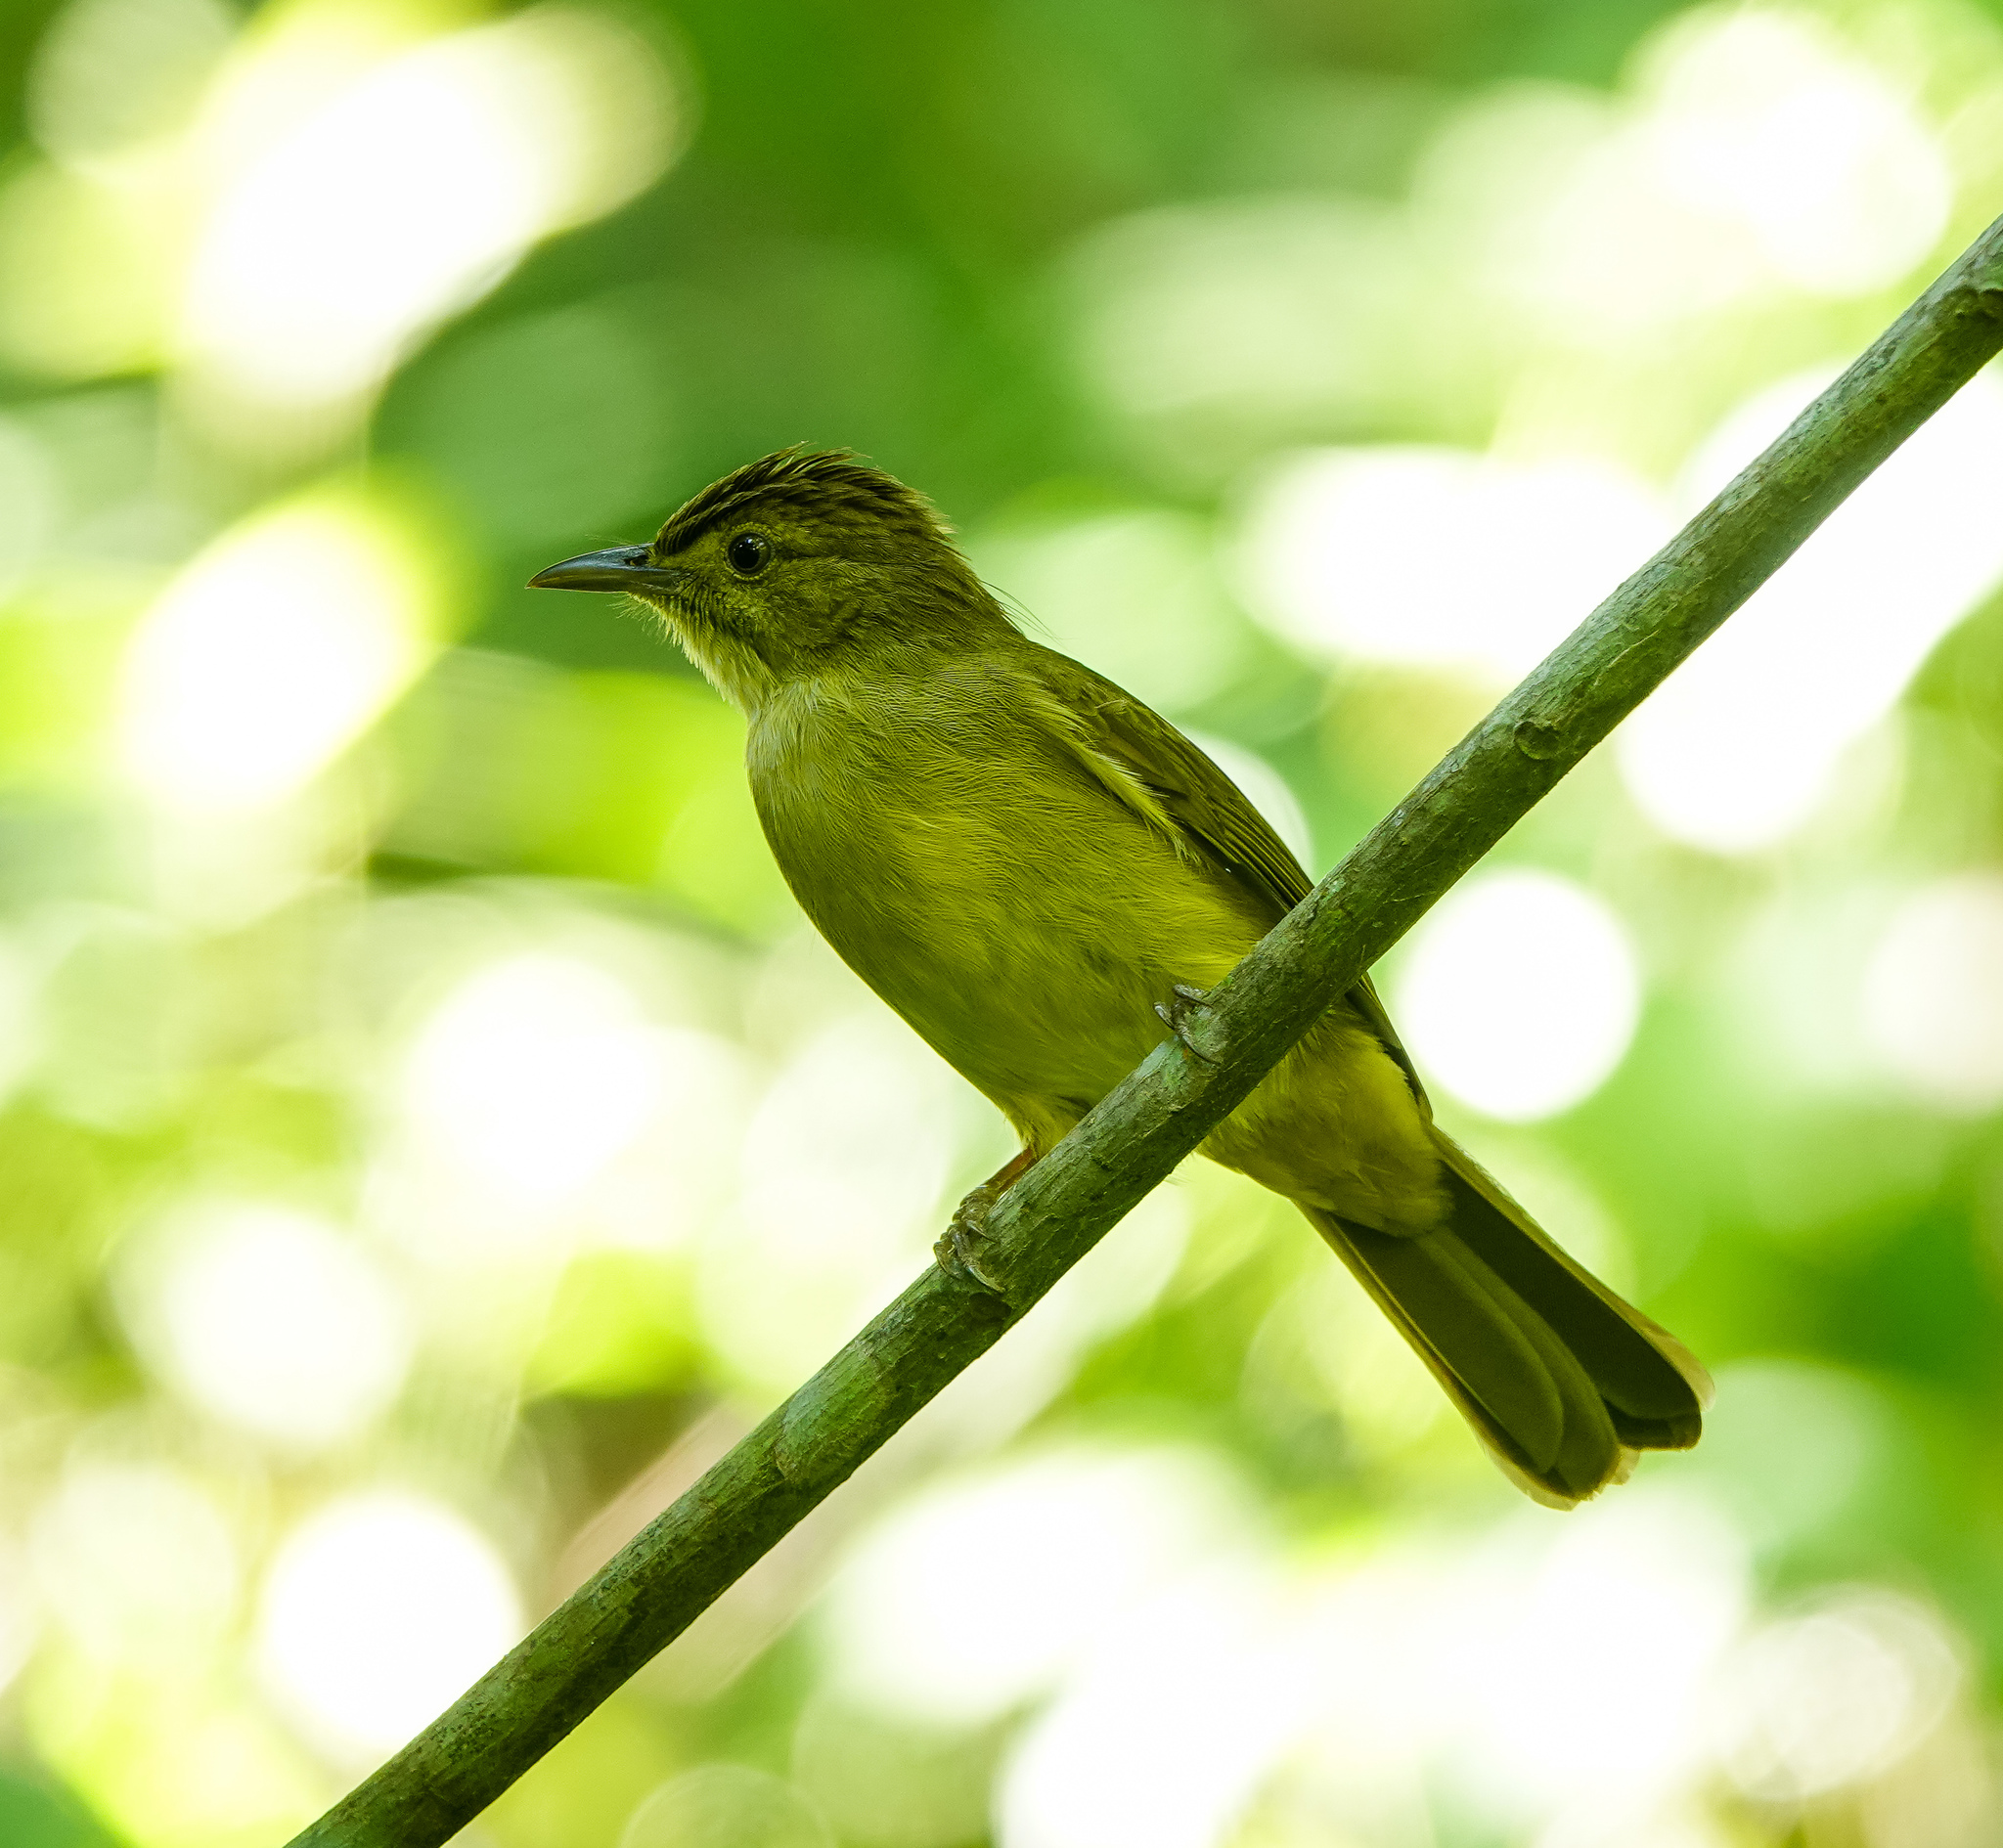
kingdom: Animalia
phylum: Chordata
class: Aves
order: Passeriformes
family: Pycnonotidae
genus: Iole
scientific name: Iole virescens
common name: Olive bulbul
